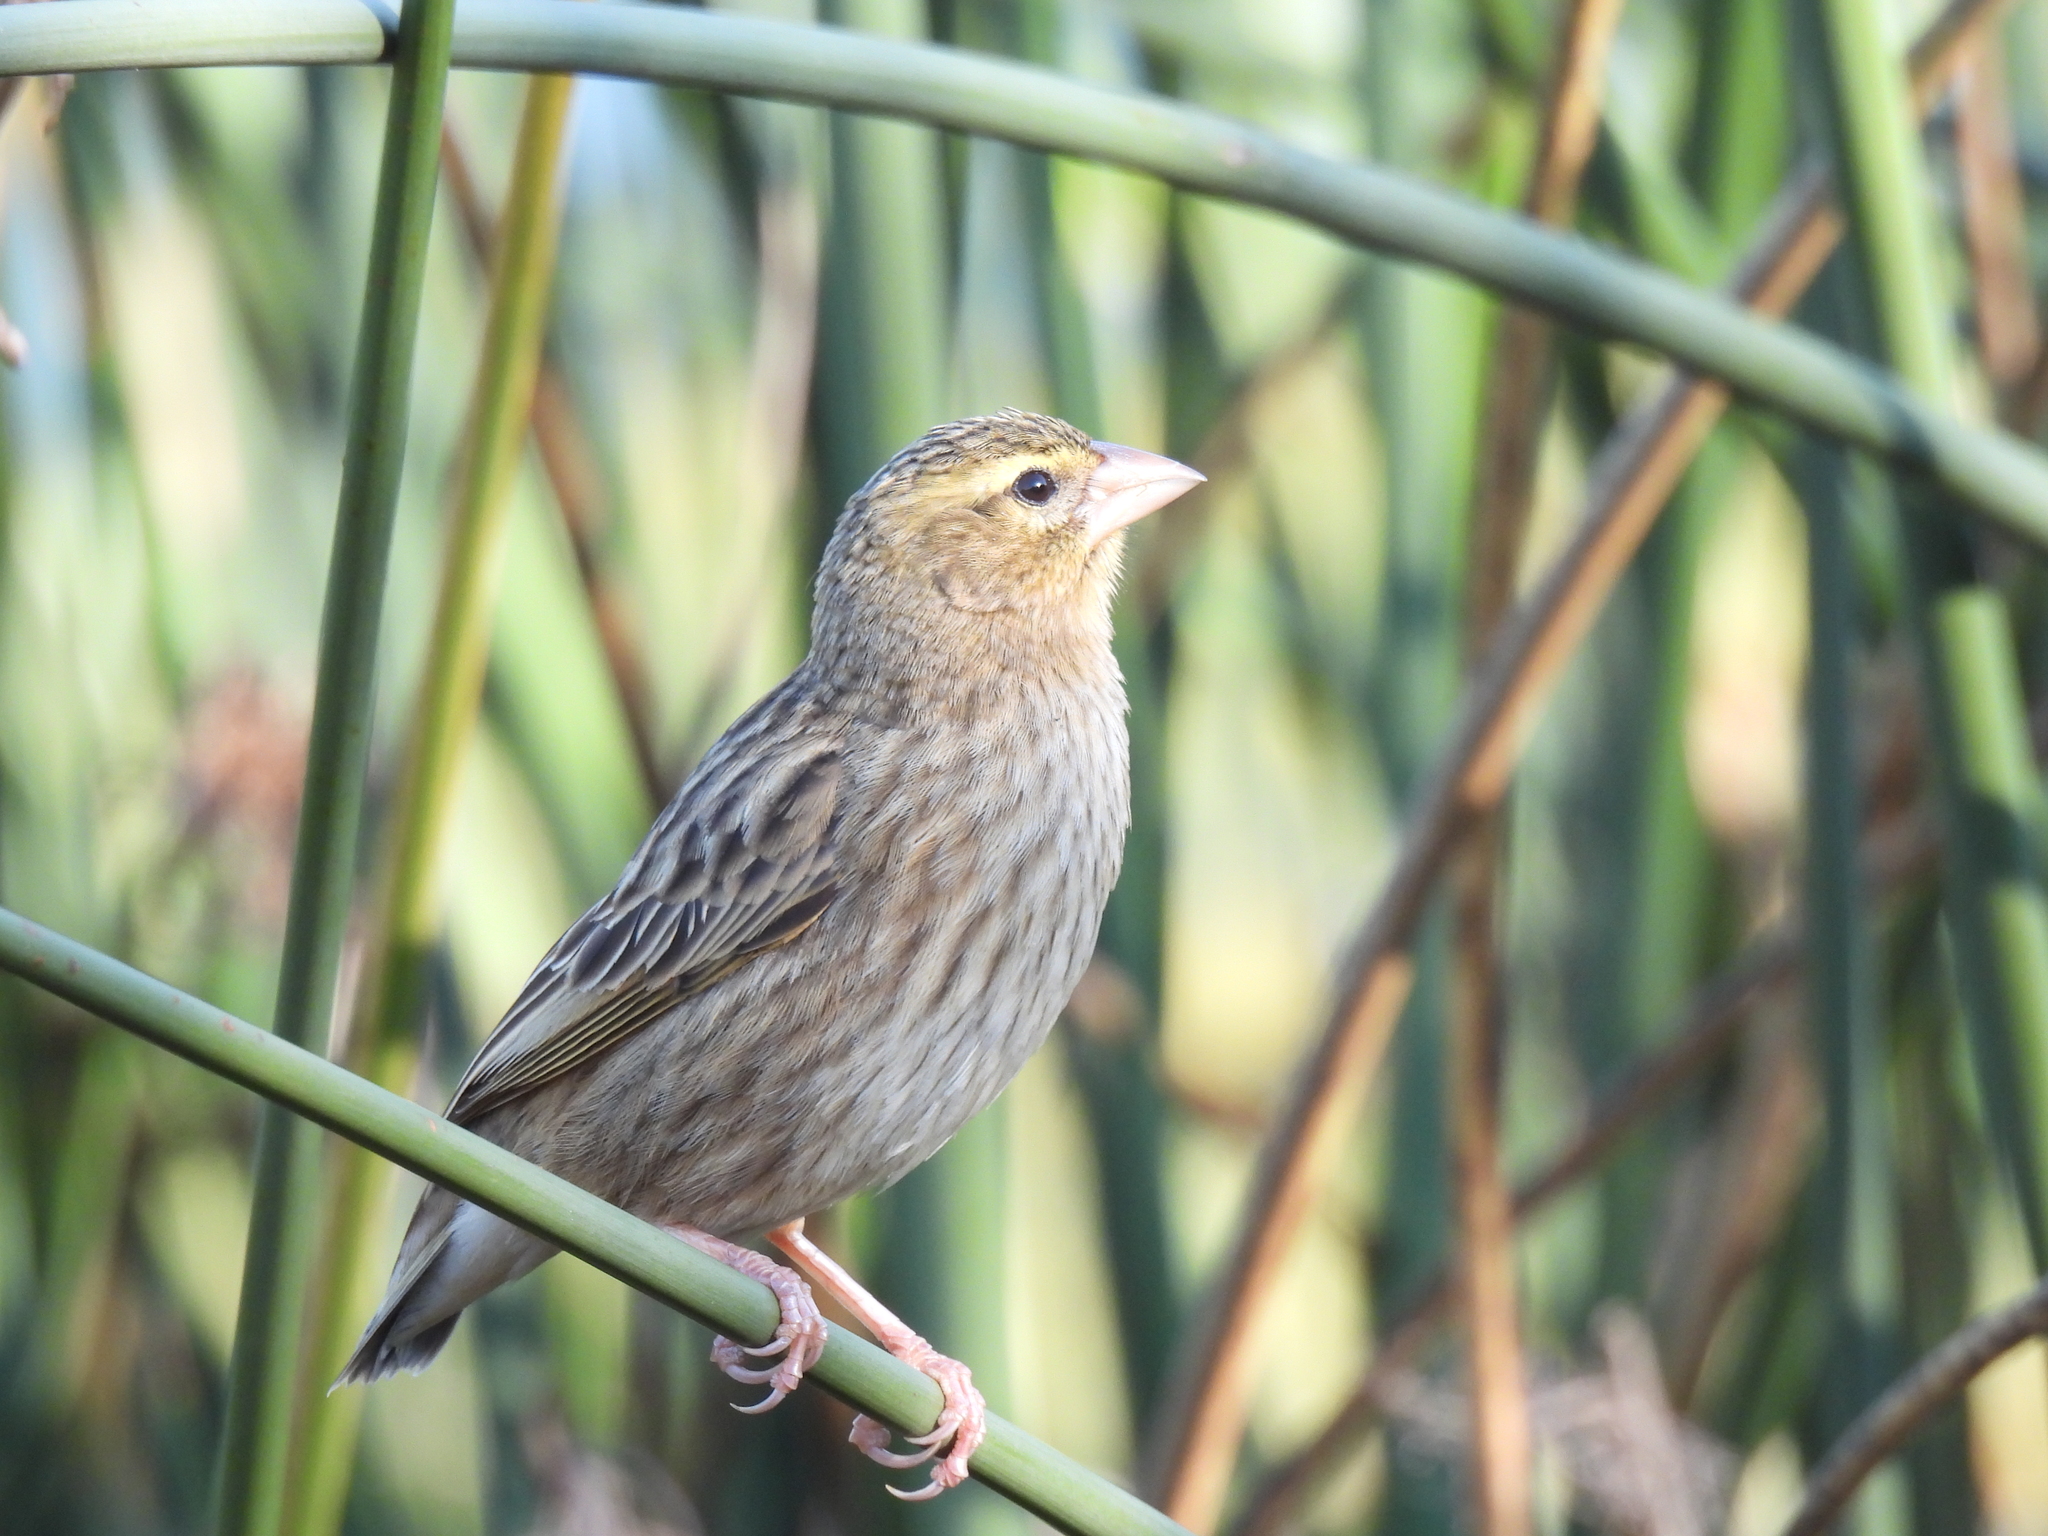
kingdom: Animalia
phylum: Chordata
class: Aves
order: Passeriformes
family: Ploceidae
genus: Euplectes
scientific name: Euplectes orix
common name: Southern red bishop
